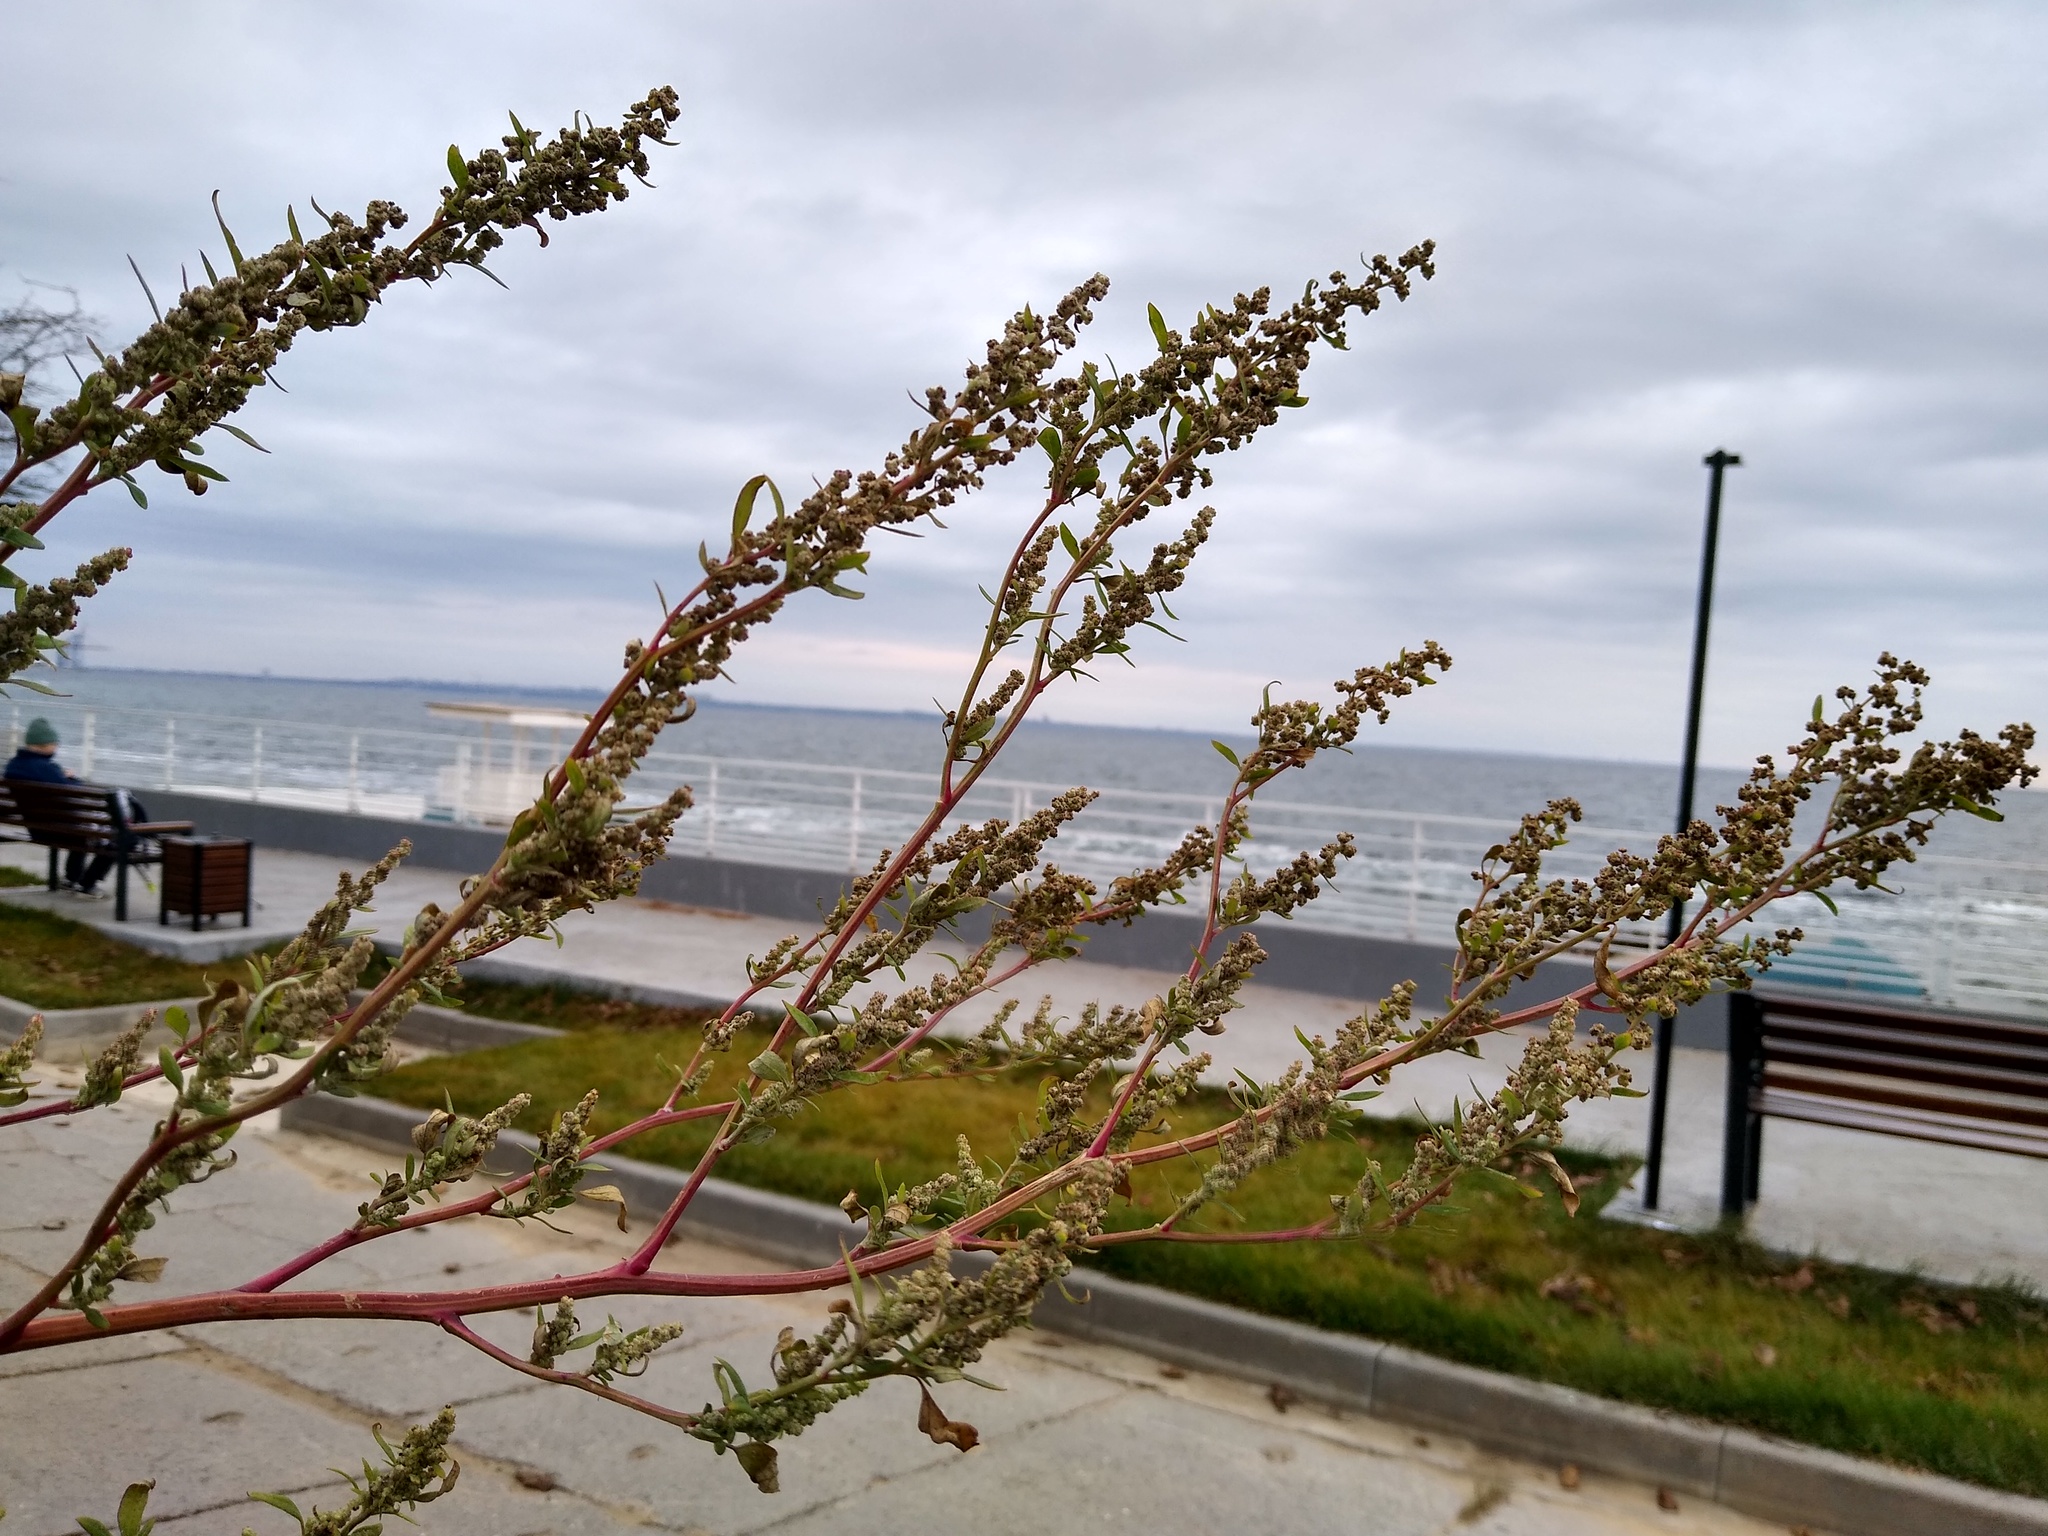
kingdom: Plantae
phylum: Tracheophyta
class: Magnoliopsida
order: Caryophyllales
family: Amaranthaceae
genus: Chenopodium
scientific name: Chenopodium betaceum
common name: Striped goosefoot
